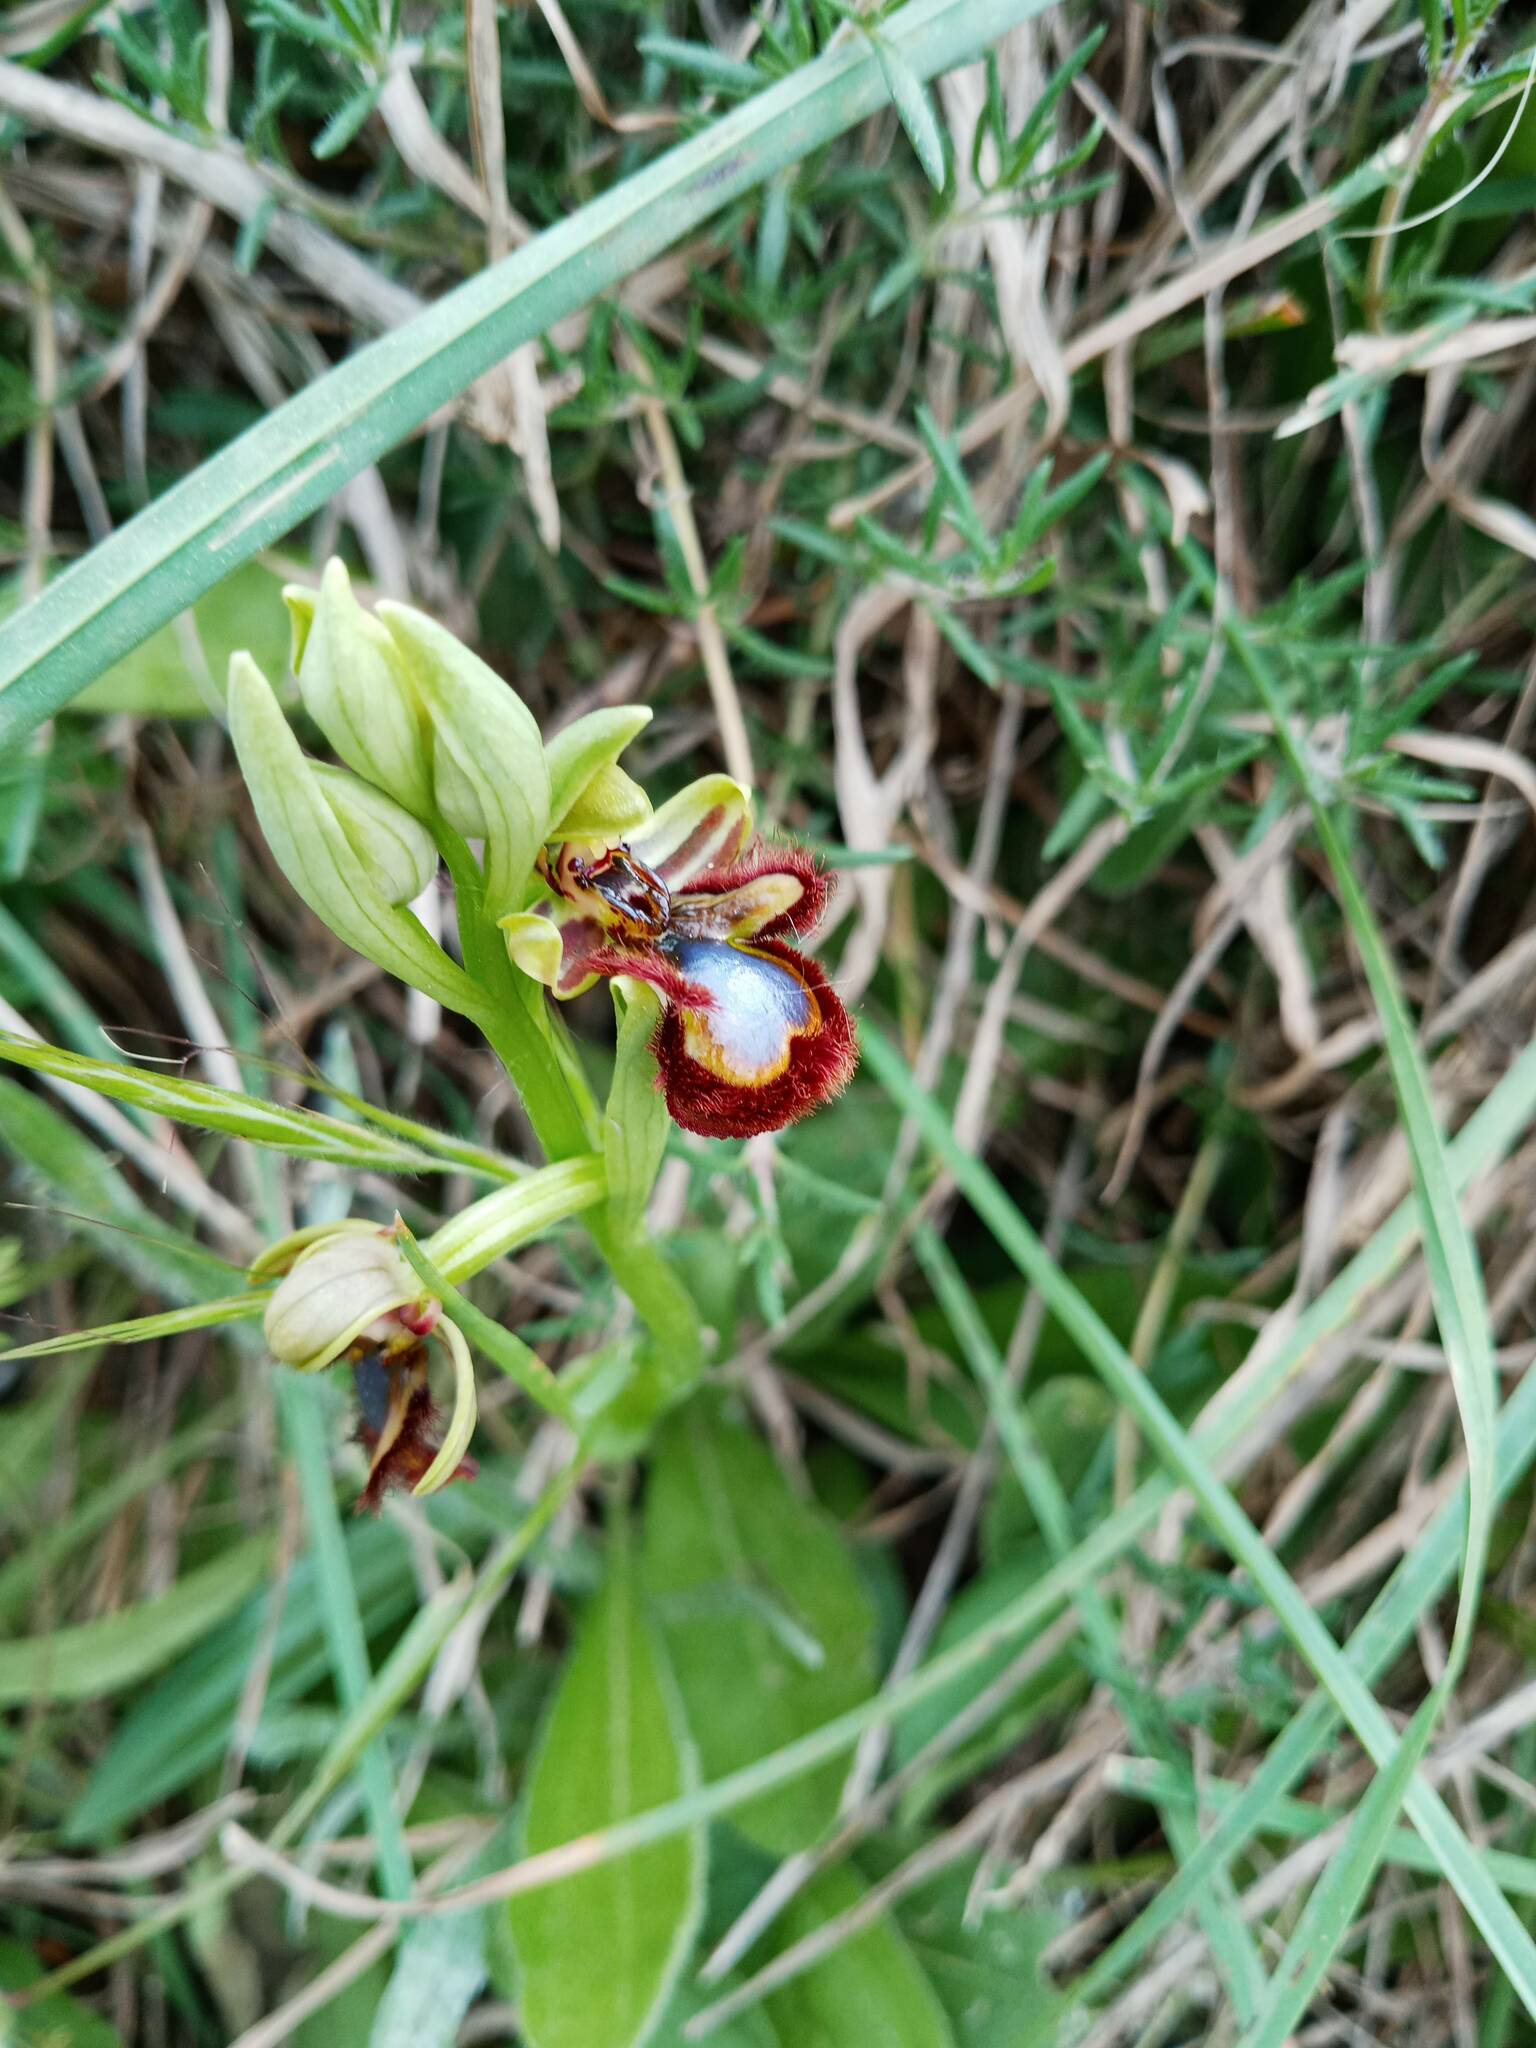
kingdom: Plantae
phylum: Tracheophyta
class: Liliopsida
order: Asparagales
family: Orchidaceae
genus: Ophrys
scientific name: Ophrys speculum
